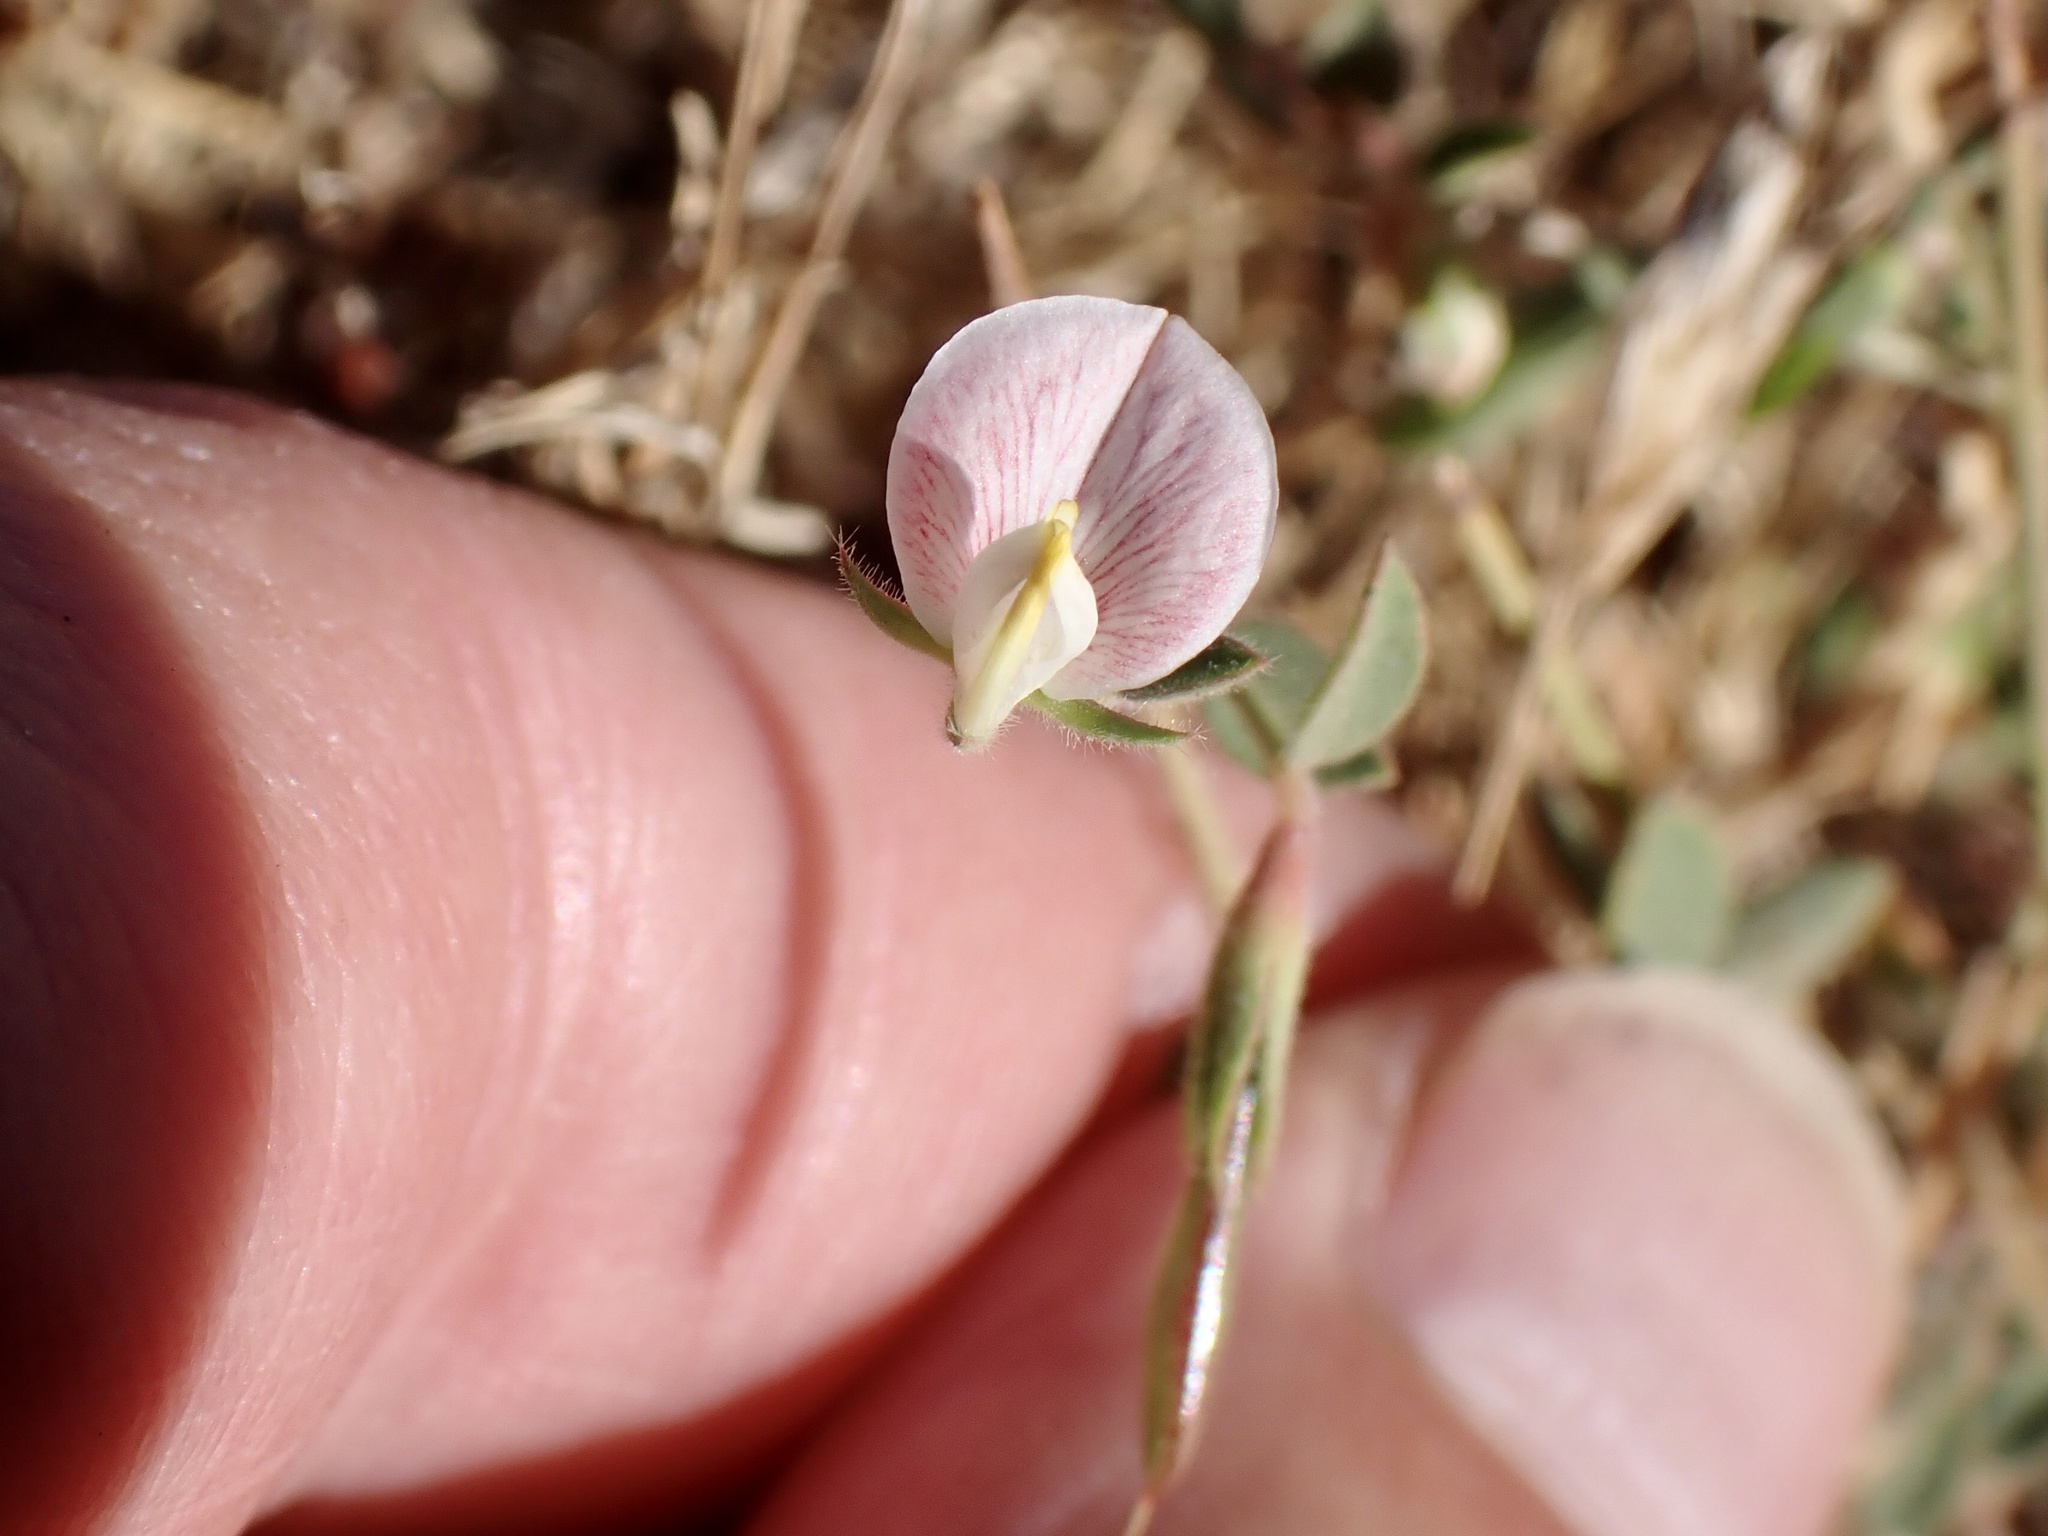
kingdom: Plantae
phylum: Tracheophyta
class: Magnoliopsida
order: Fabales
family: Fabaceae
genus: Acmispon
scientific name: Acmispon americanus
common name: American bird's-foot trefoil
